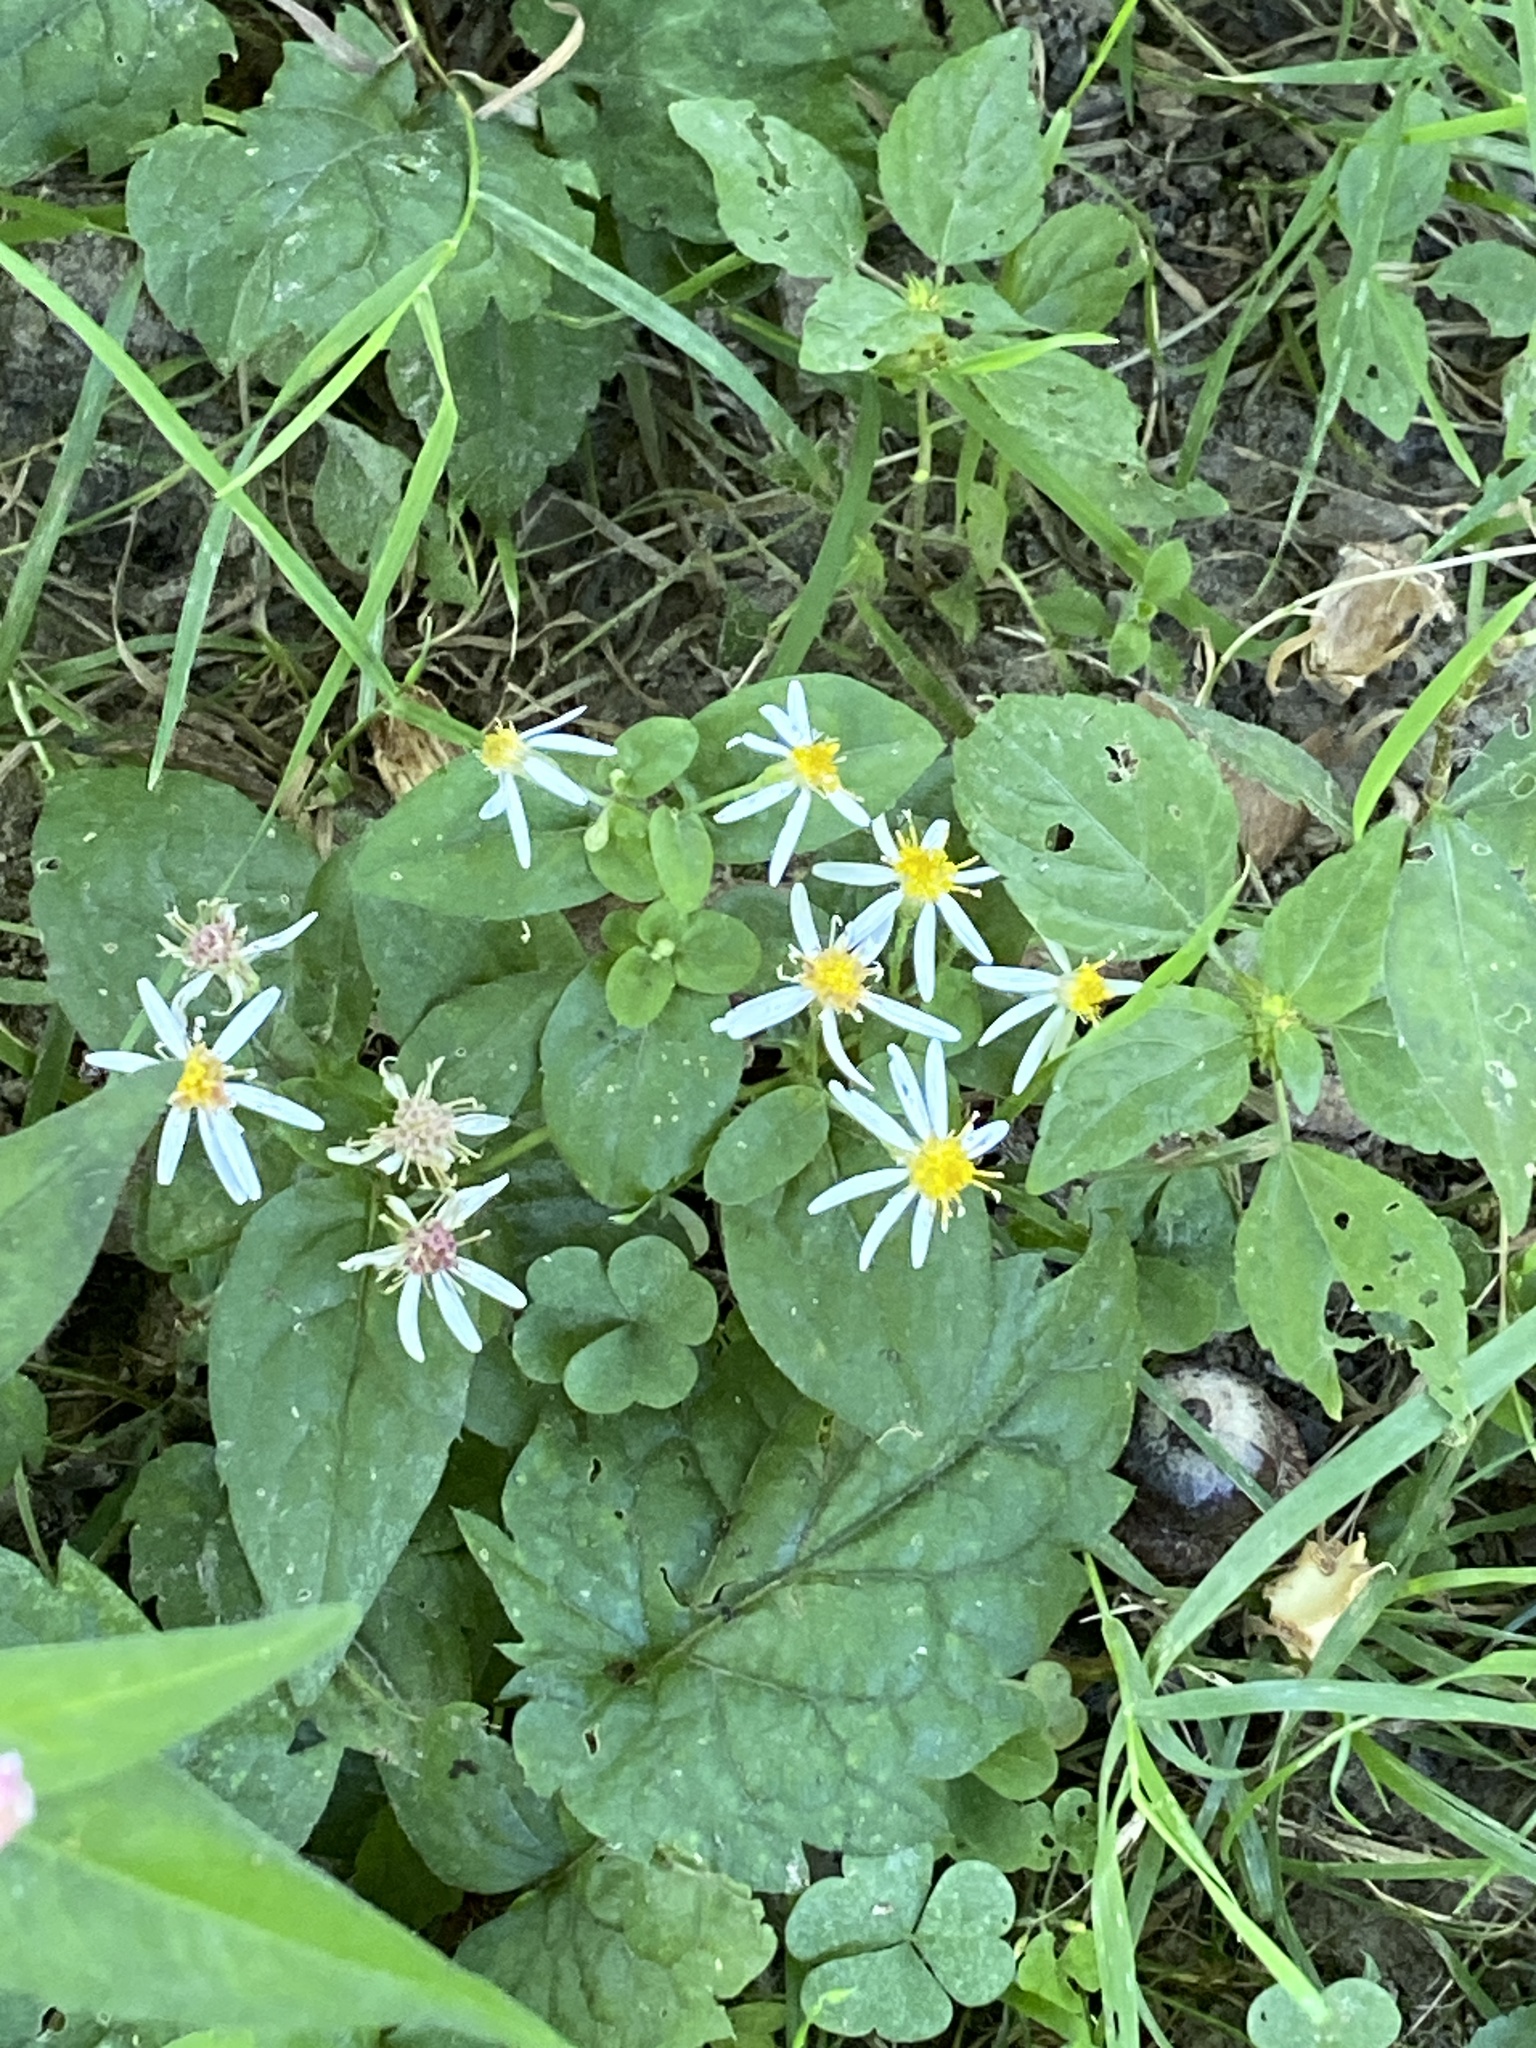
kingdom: Plantae
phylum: Tracheophyta
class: Magnoliopsida
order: Asterales
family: Asteraceae
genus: Eurybia
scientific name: Eurybia divaricata
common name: White wood aster
